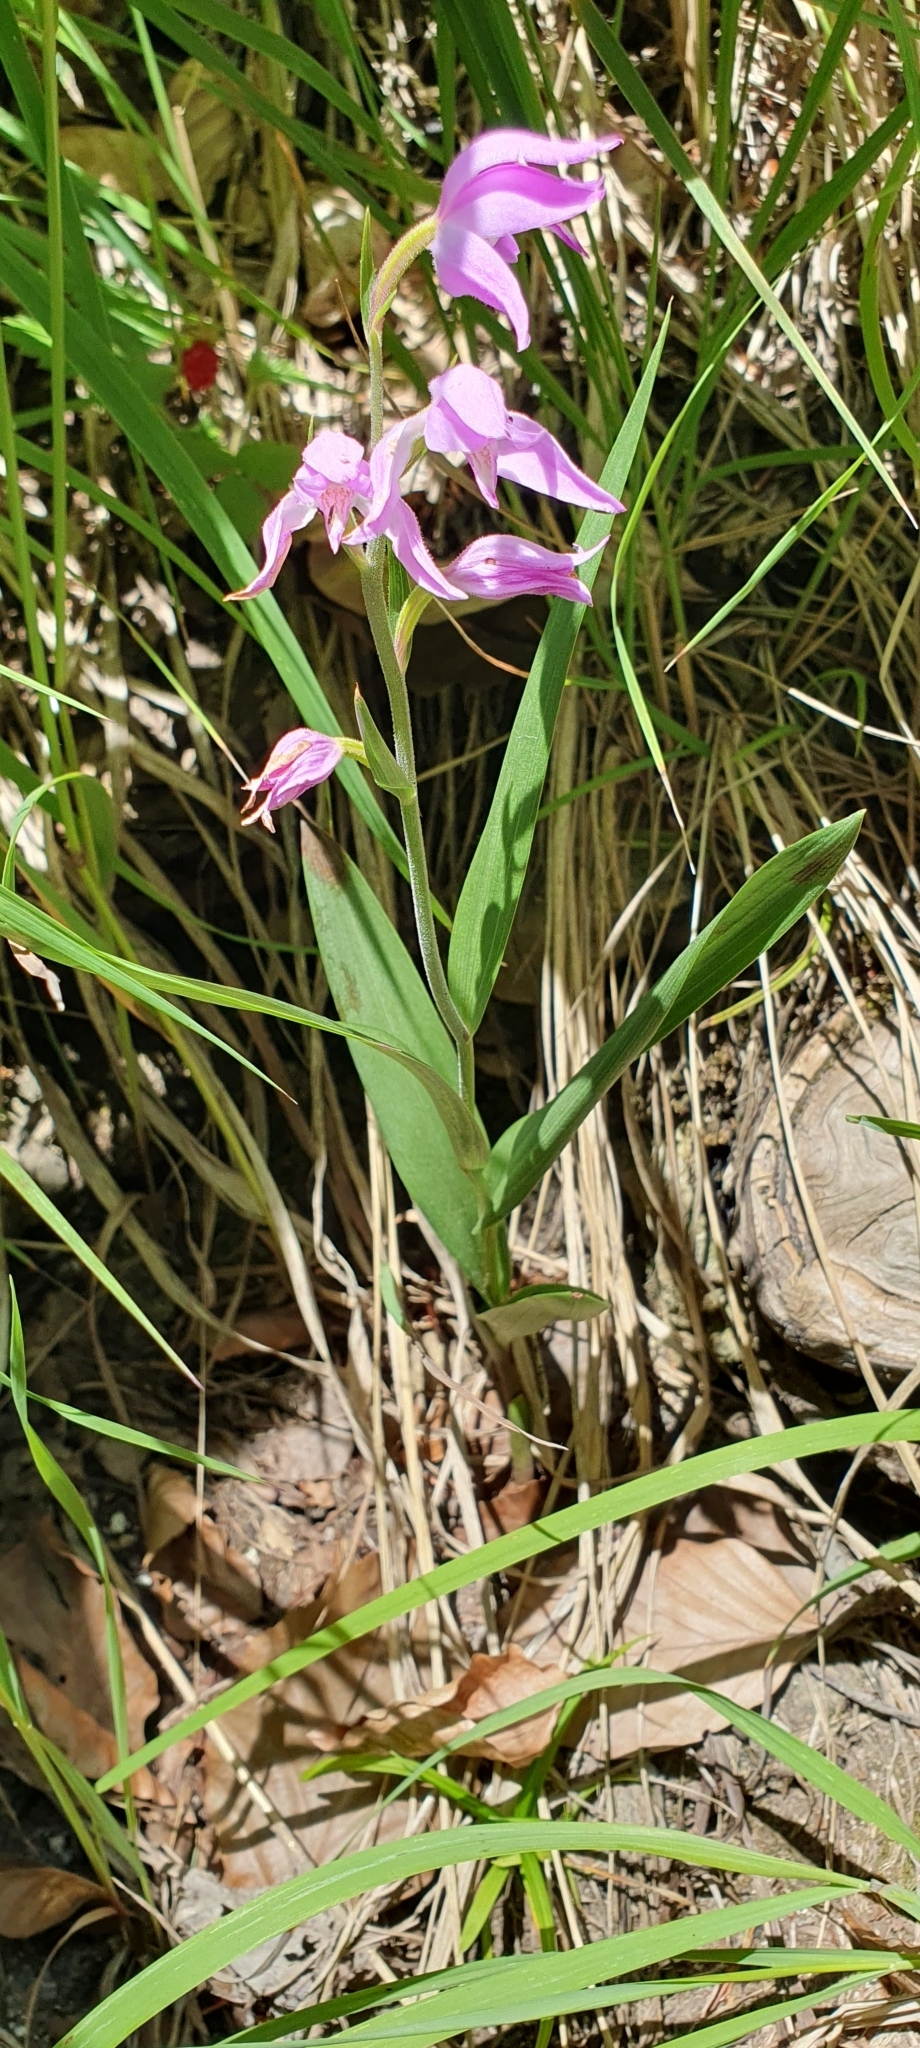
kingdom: Plantae
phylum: Tracheophyta
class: Liliopsida
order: Asparagales
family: Orchidaceae
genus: Cephalanthera
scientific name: Cephalanthera rubra
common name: Red helleborine
